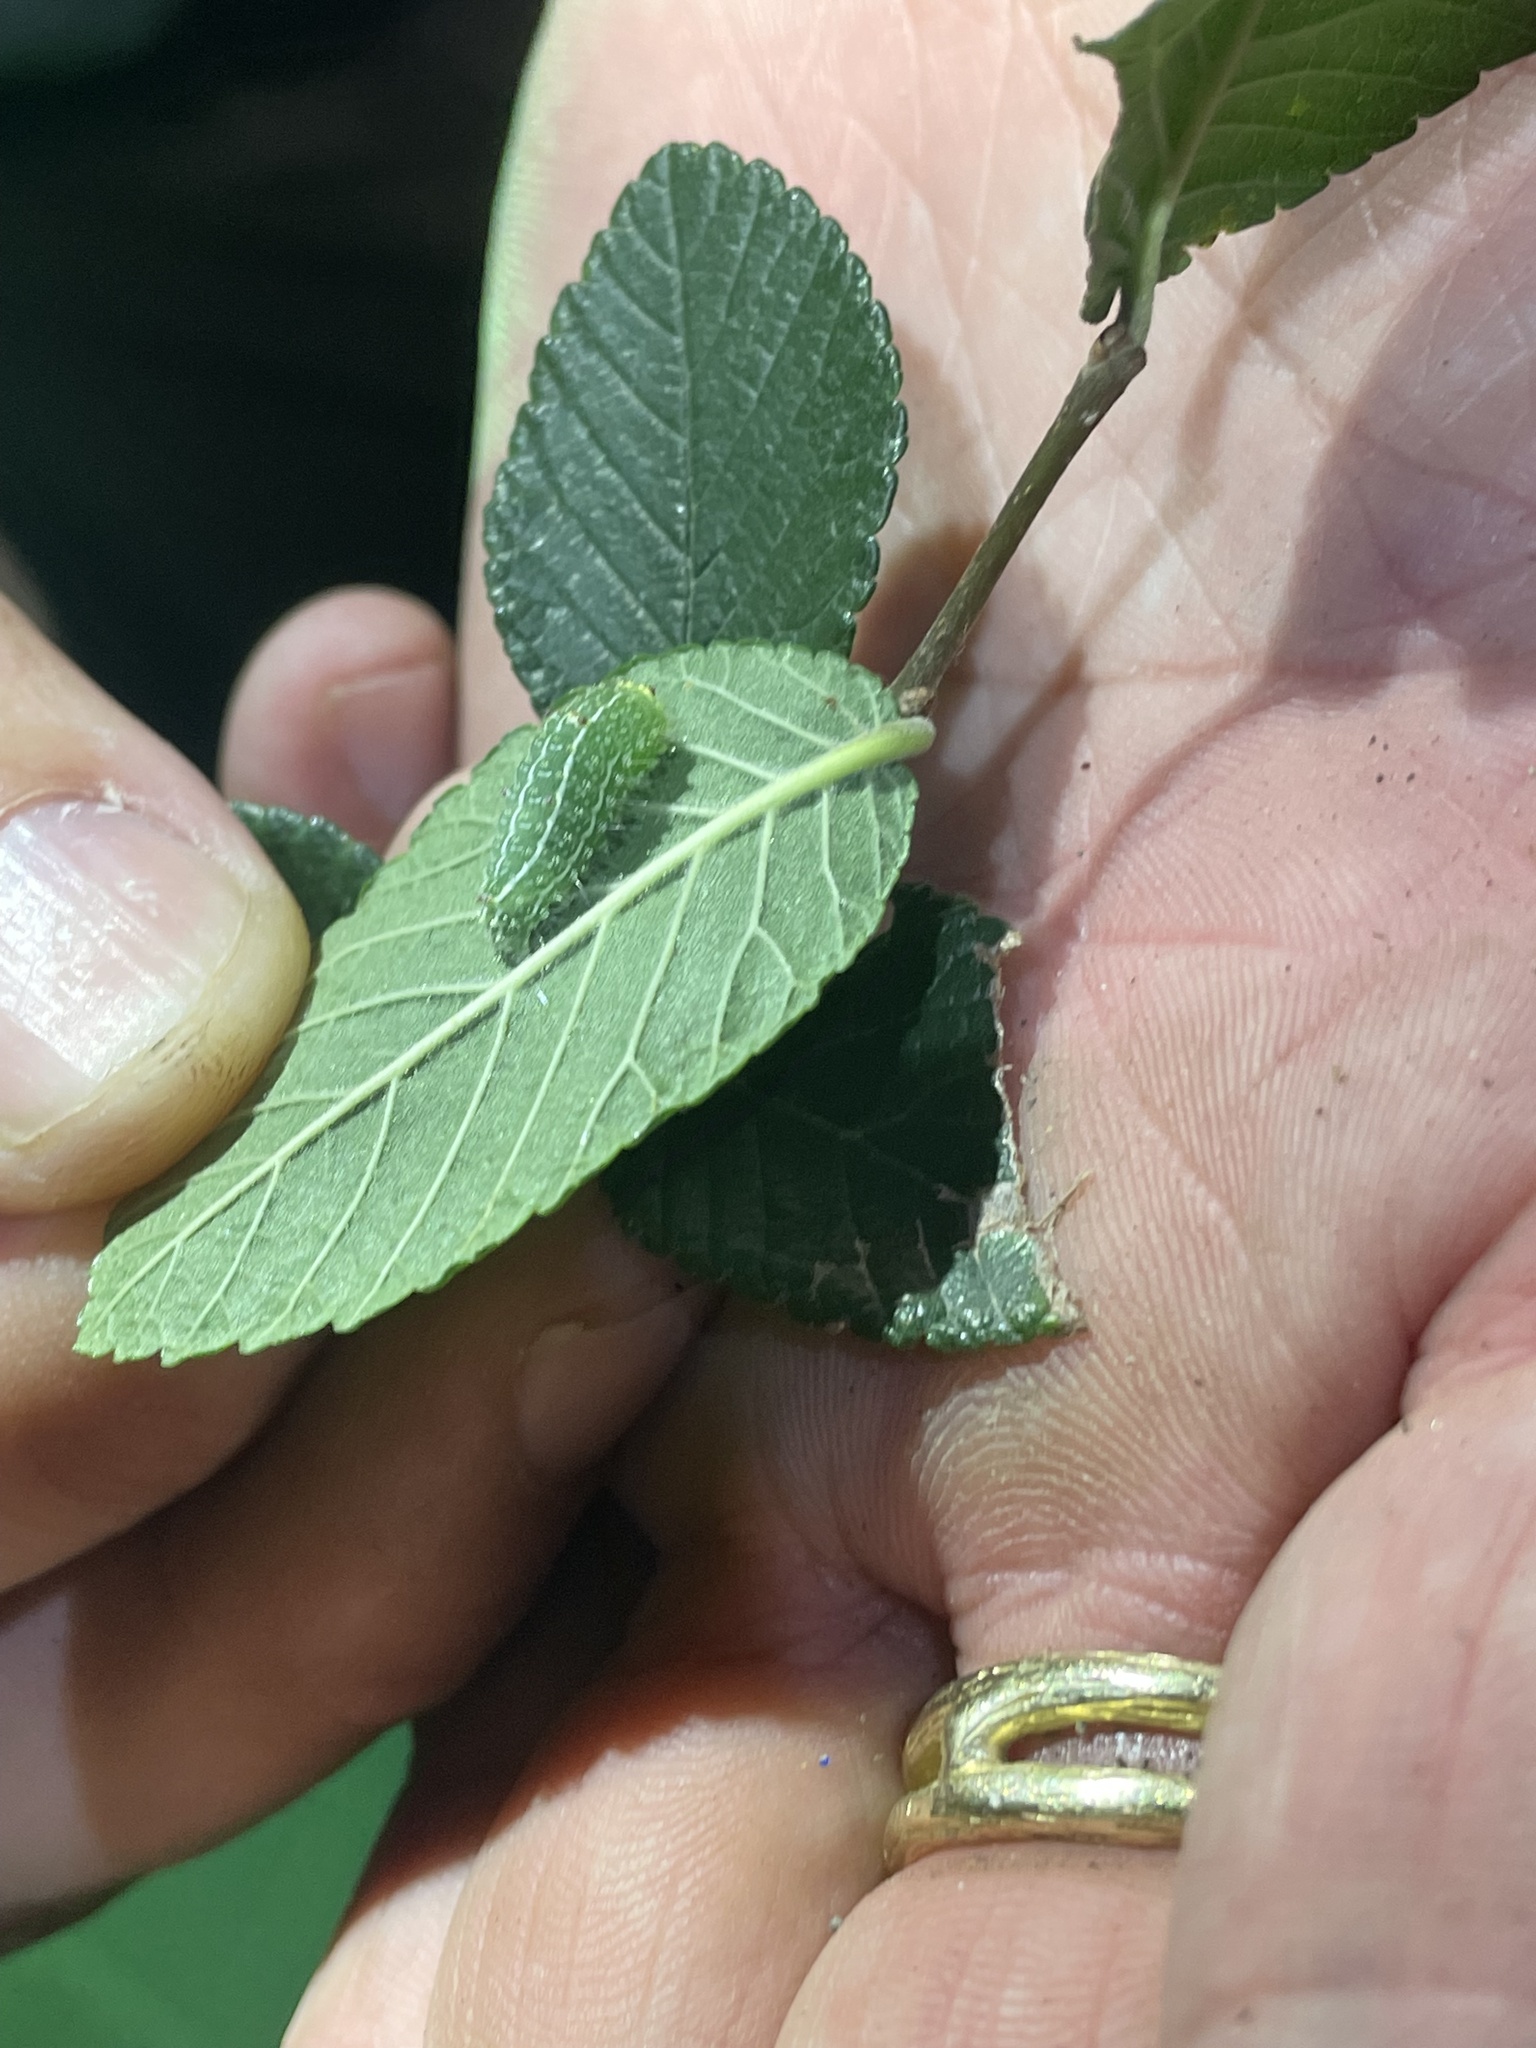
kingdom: Animalia
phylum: Arthropoda
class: Insecta
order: Lepidoptera
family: Noctuidae
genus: Acronicta
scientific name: Acronicta vinnula
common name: Delightful dagger
